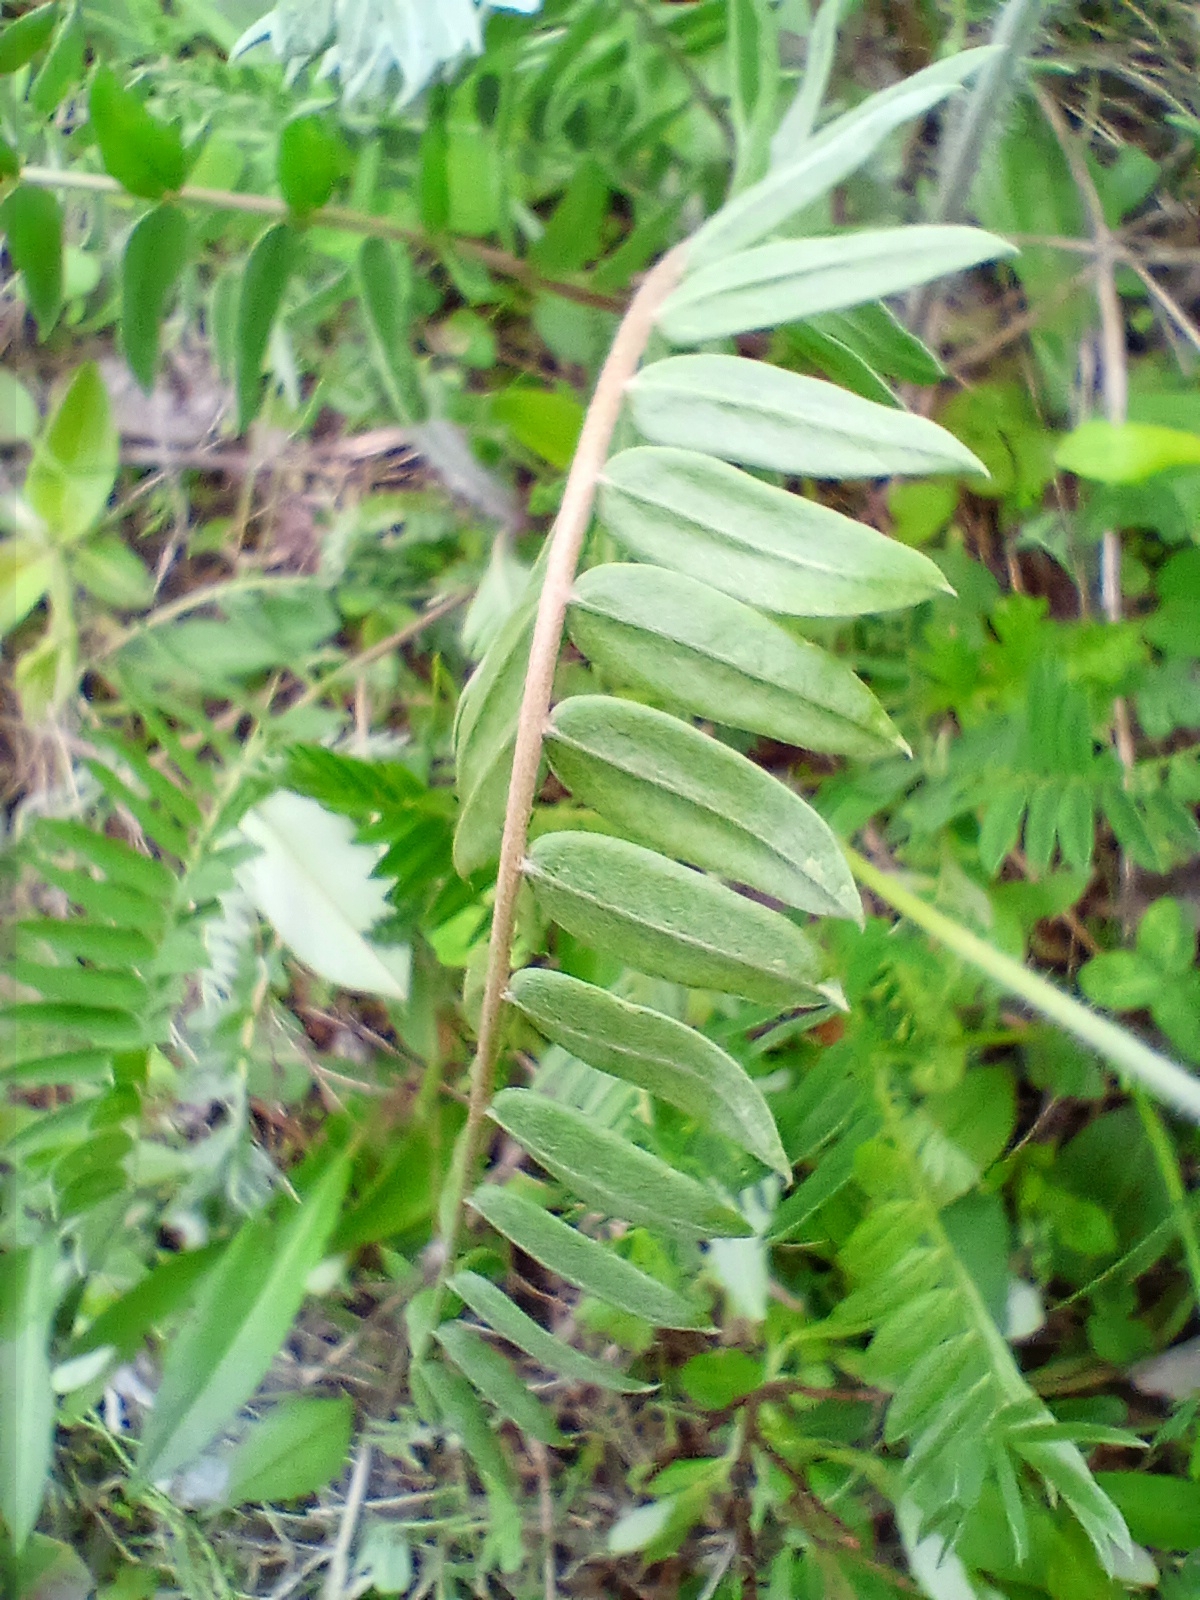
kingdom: Plantae
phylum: Tracheophyta
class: Magnoliopsida
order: Fabales
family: Fabaceae
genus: Oxytropis
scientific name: Oxytropis strobilacea
